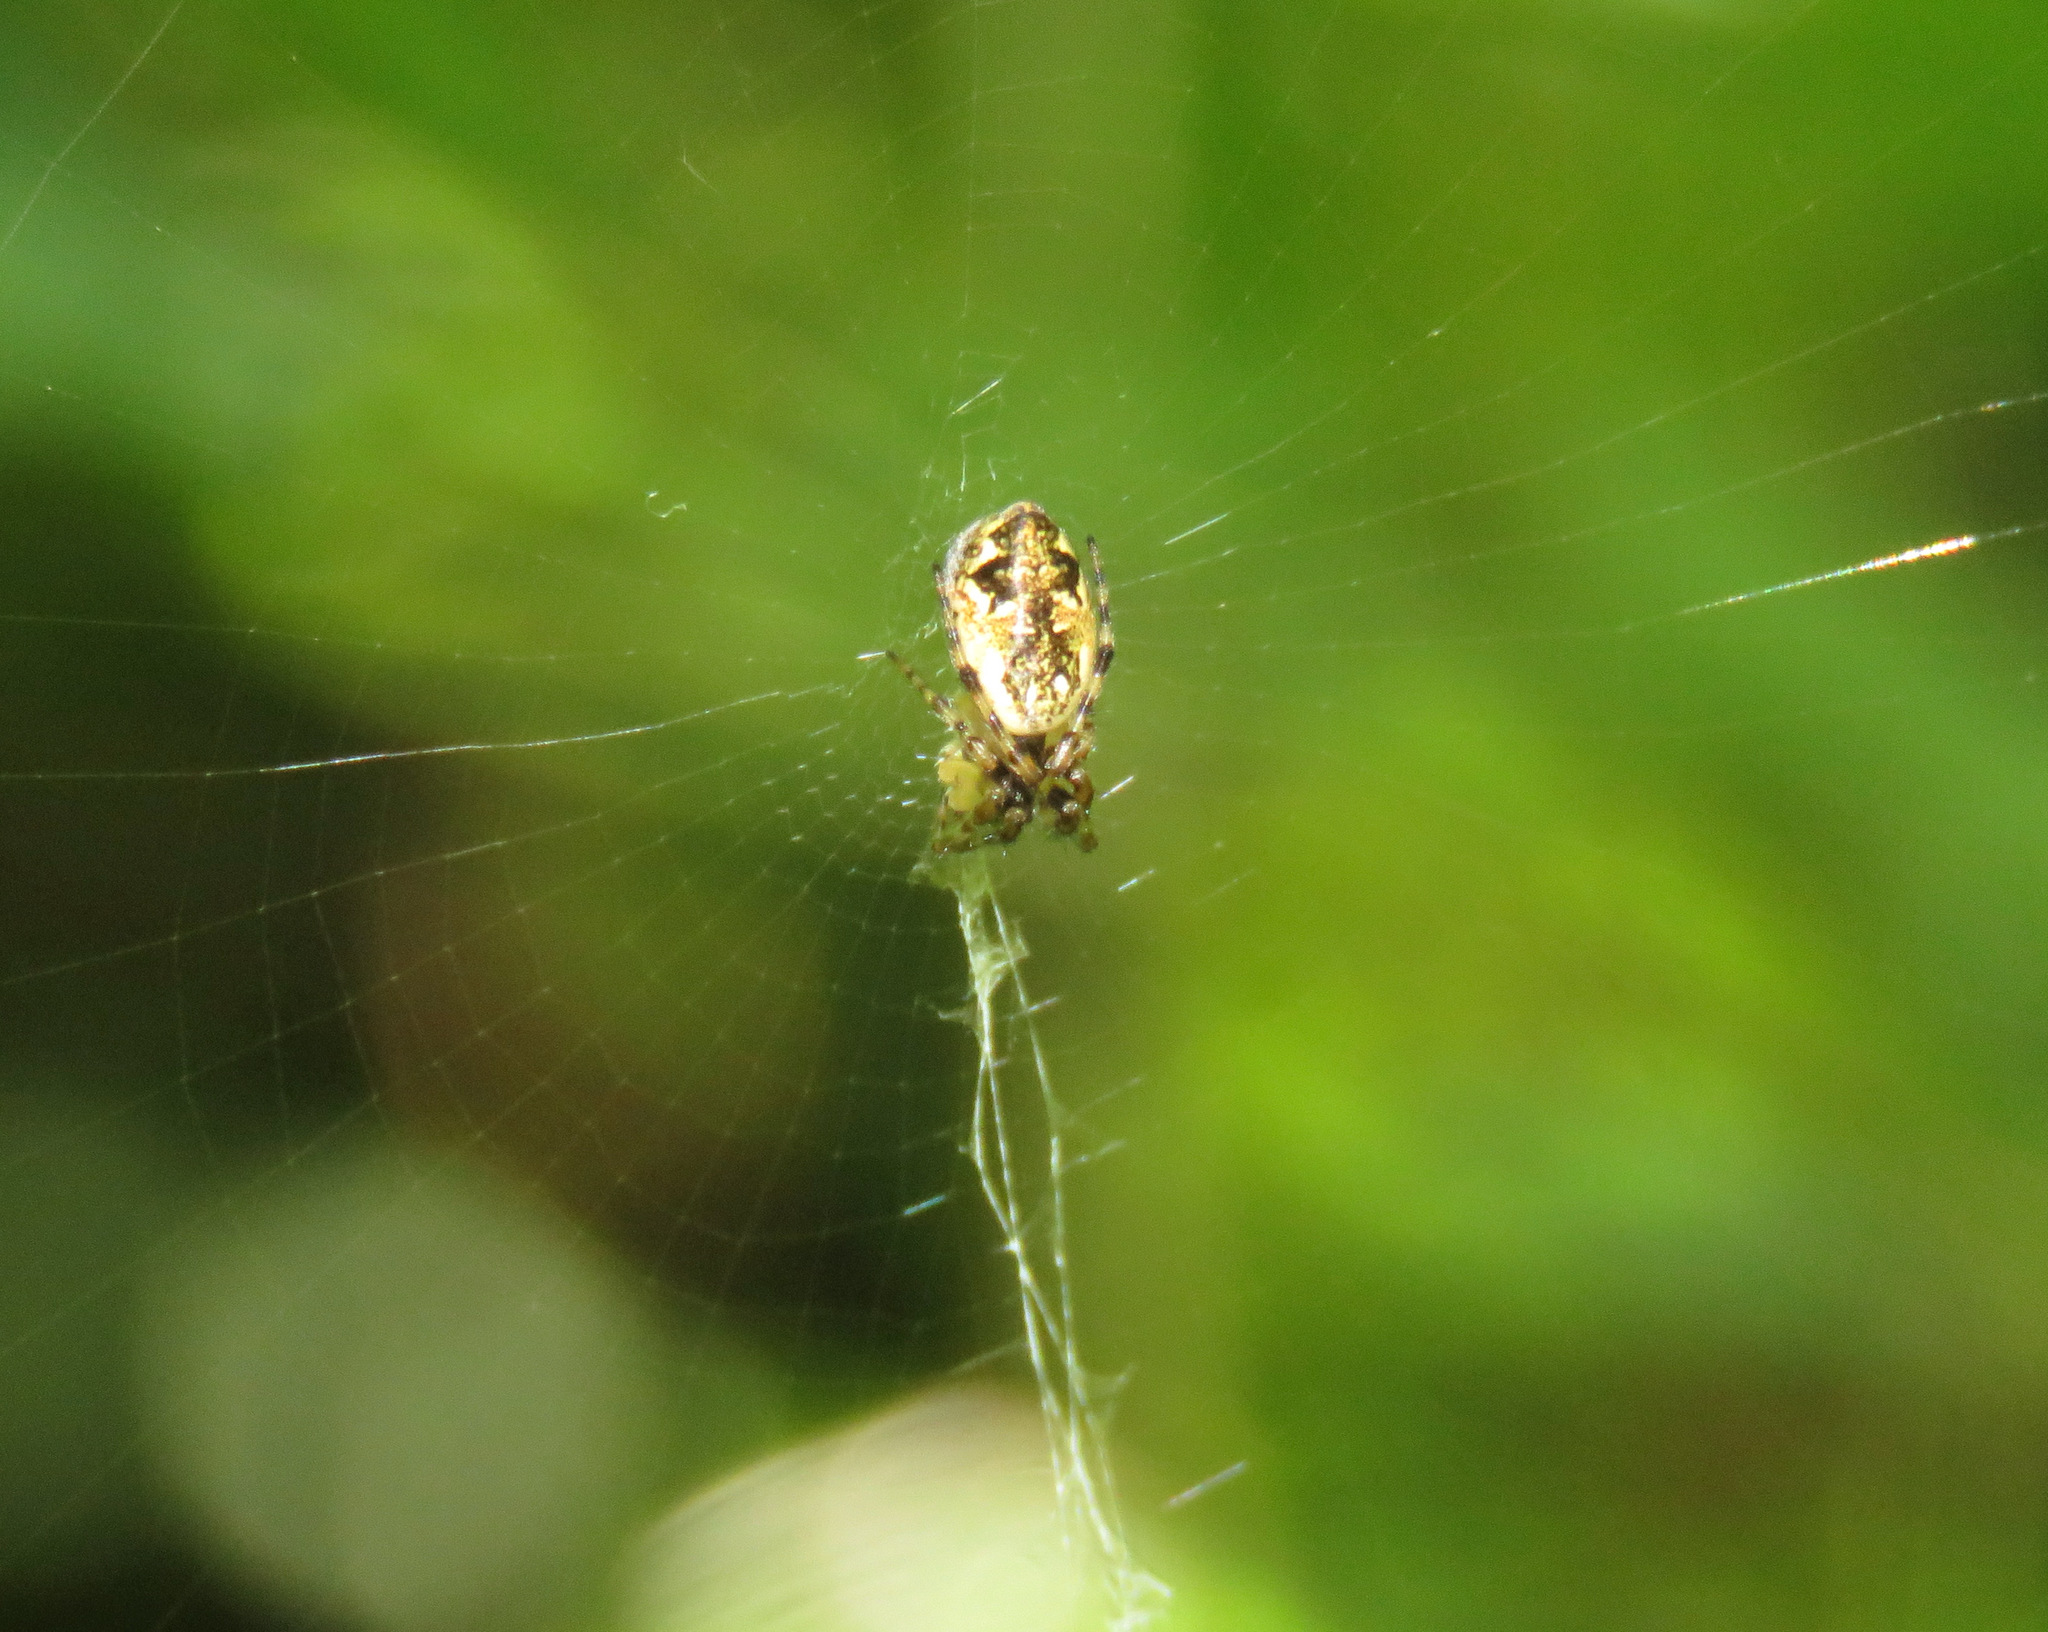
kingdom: Animalia
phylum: Arthropoda
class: Arachnida
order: Araneae
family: Araneidae
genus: Cyclosa
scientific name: Cyclosa conica
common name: Conical trashline orbweaver
